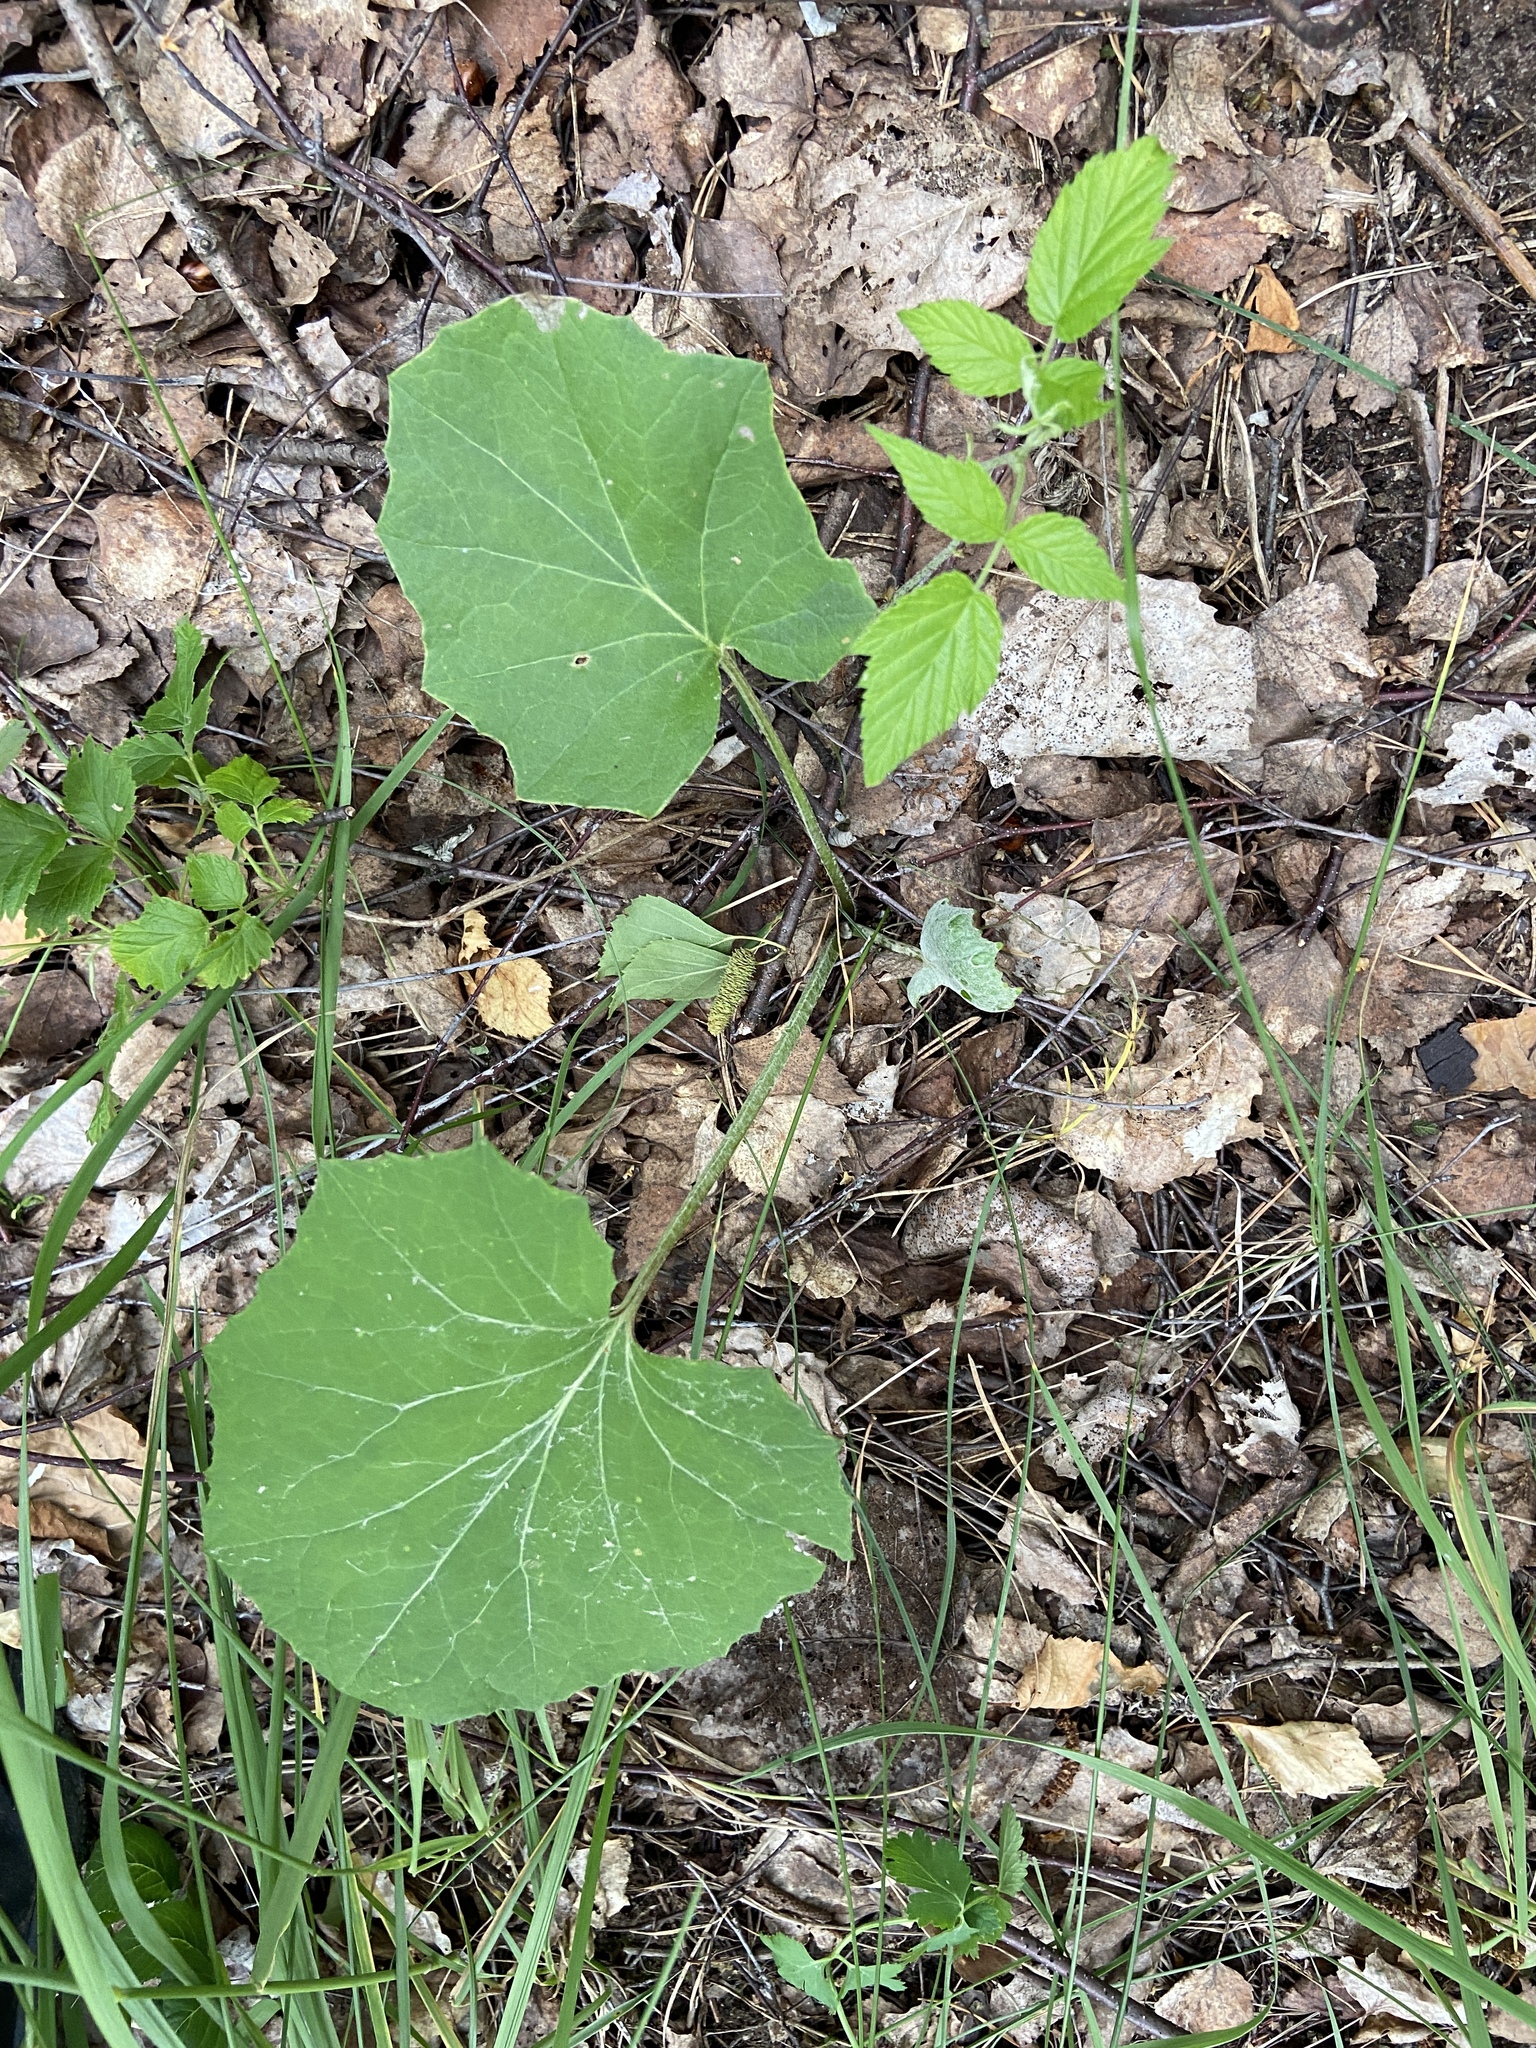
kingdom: Plantae
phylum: Tracheophyta
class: Magnoliopsida
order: Asterales
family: Asteraceae
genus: Tussilago
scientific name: Tussilago farfara
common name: Coltsfoot
